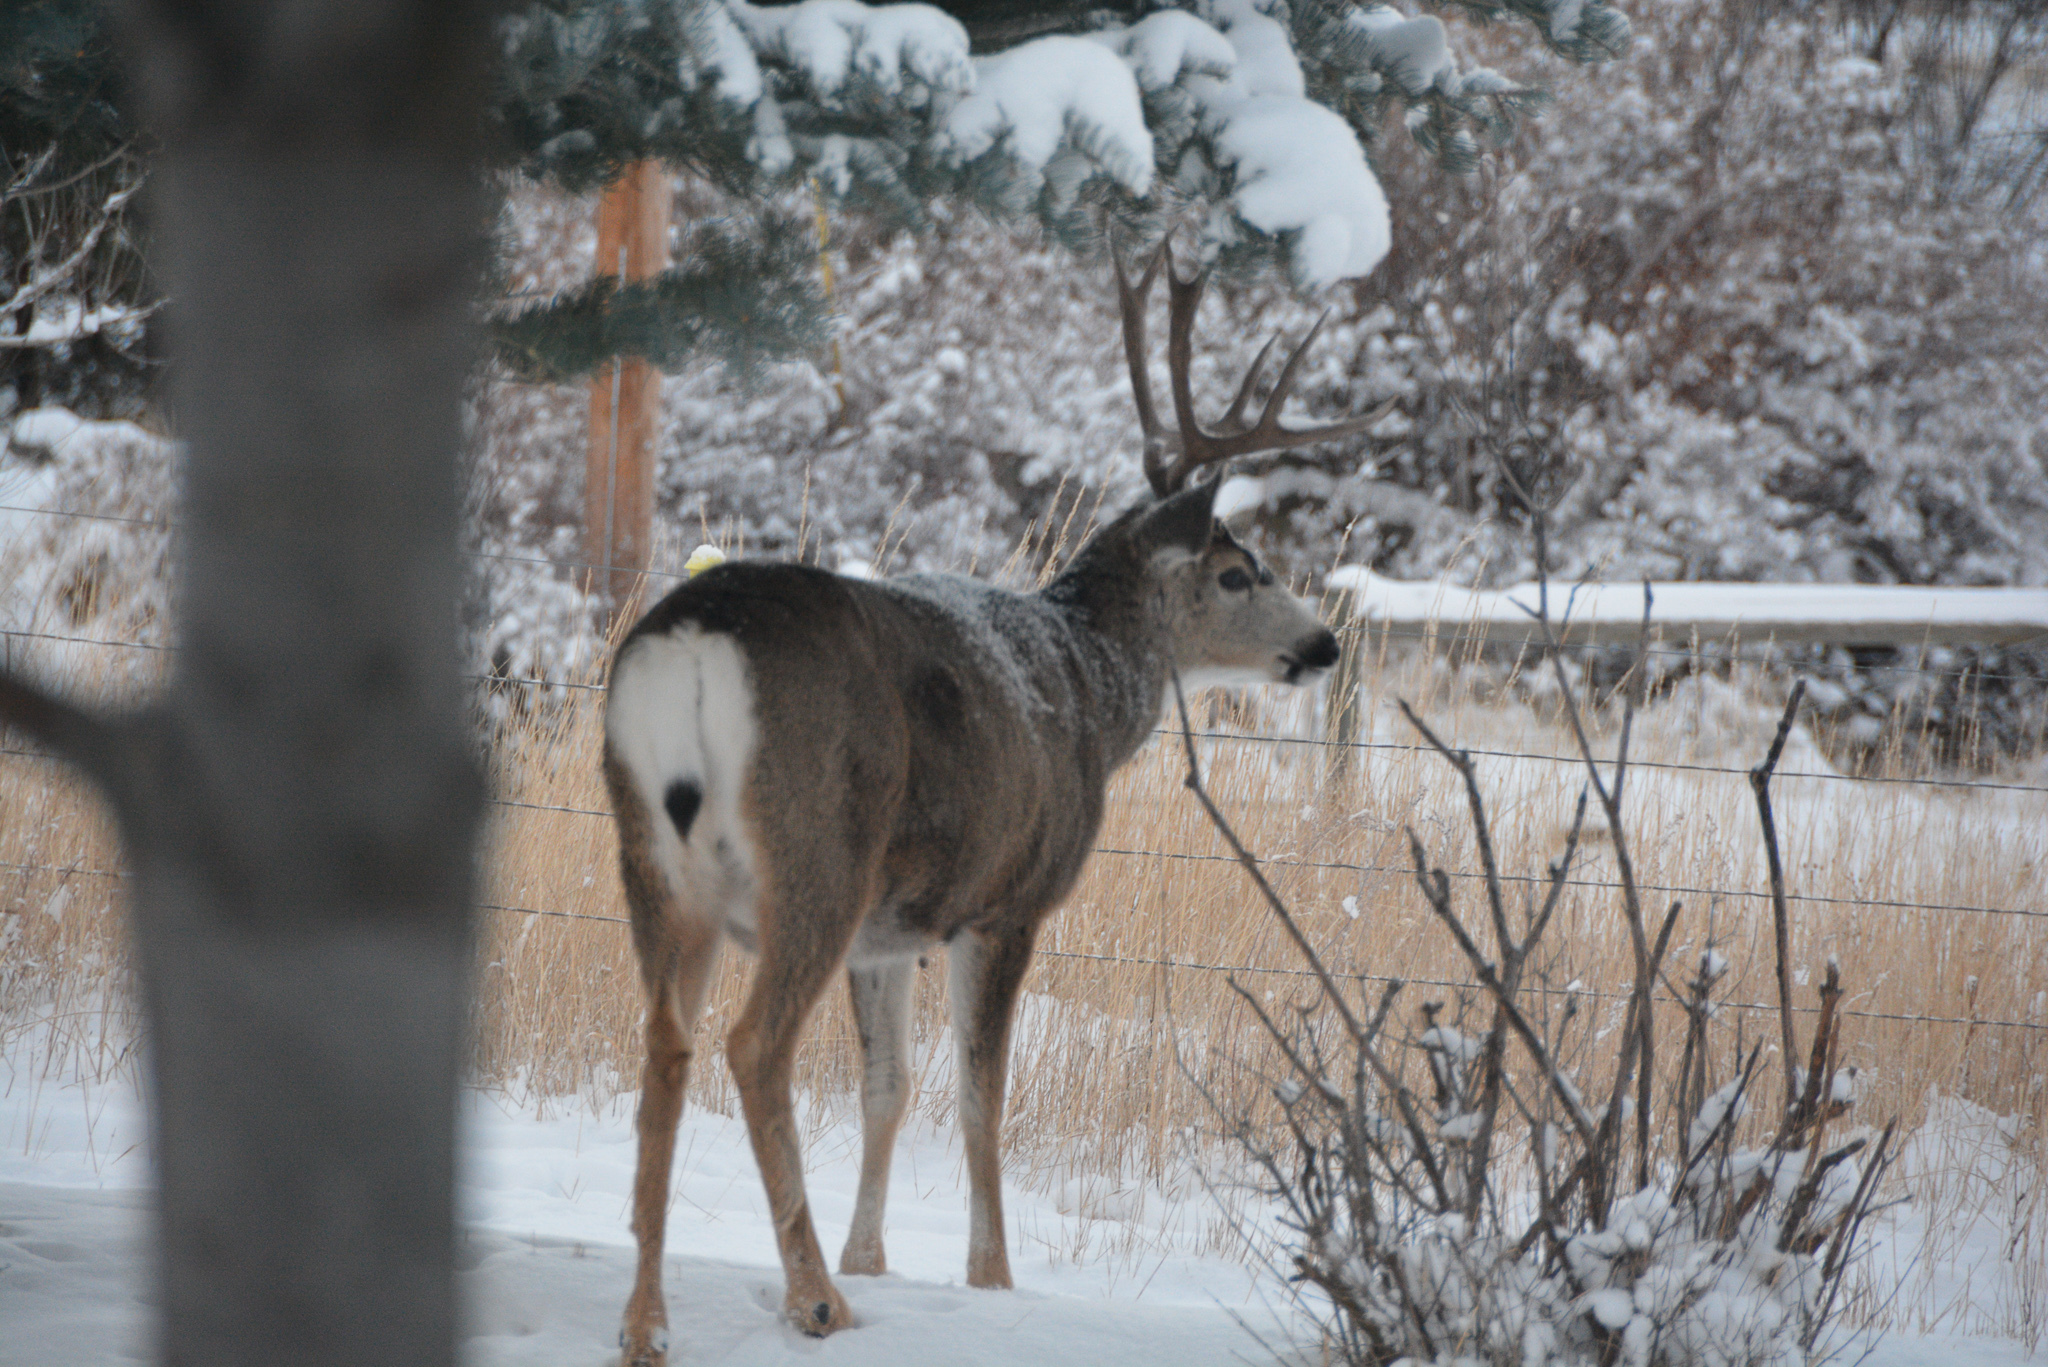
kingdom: Animalia
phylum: Chordata
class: Mammalia
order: Artiodactyla
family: Cervidae
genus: Odocoileus
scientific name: Odocoileus hemionus
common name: Mule deer
